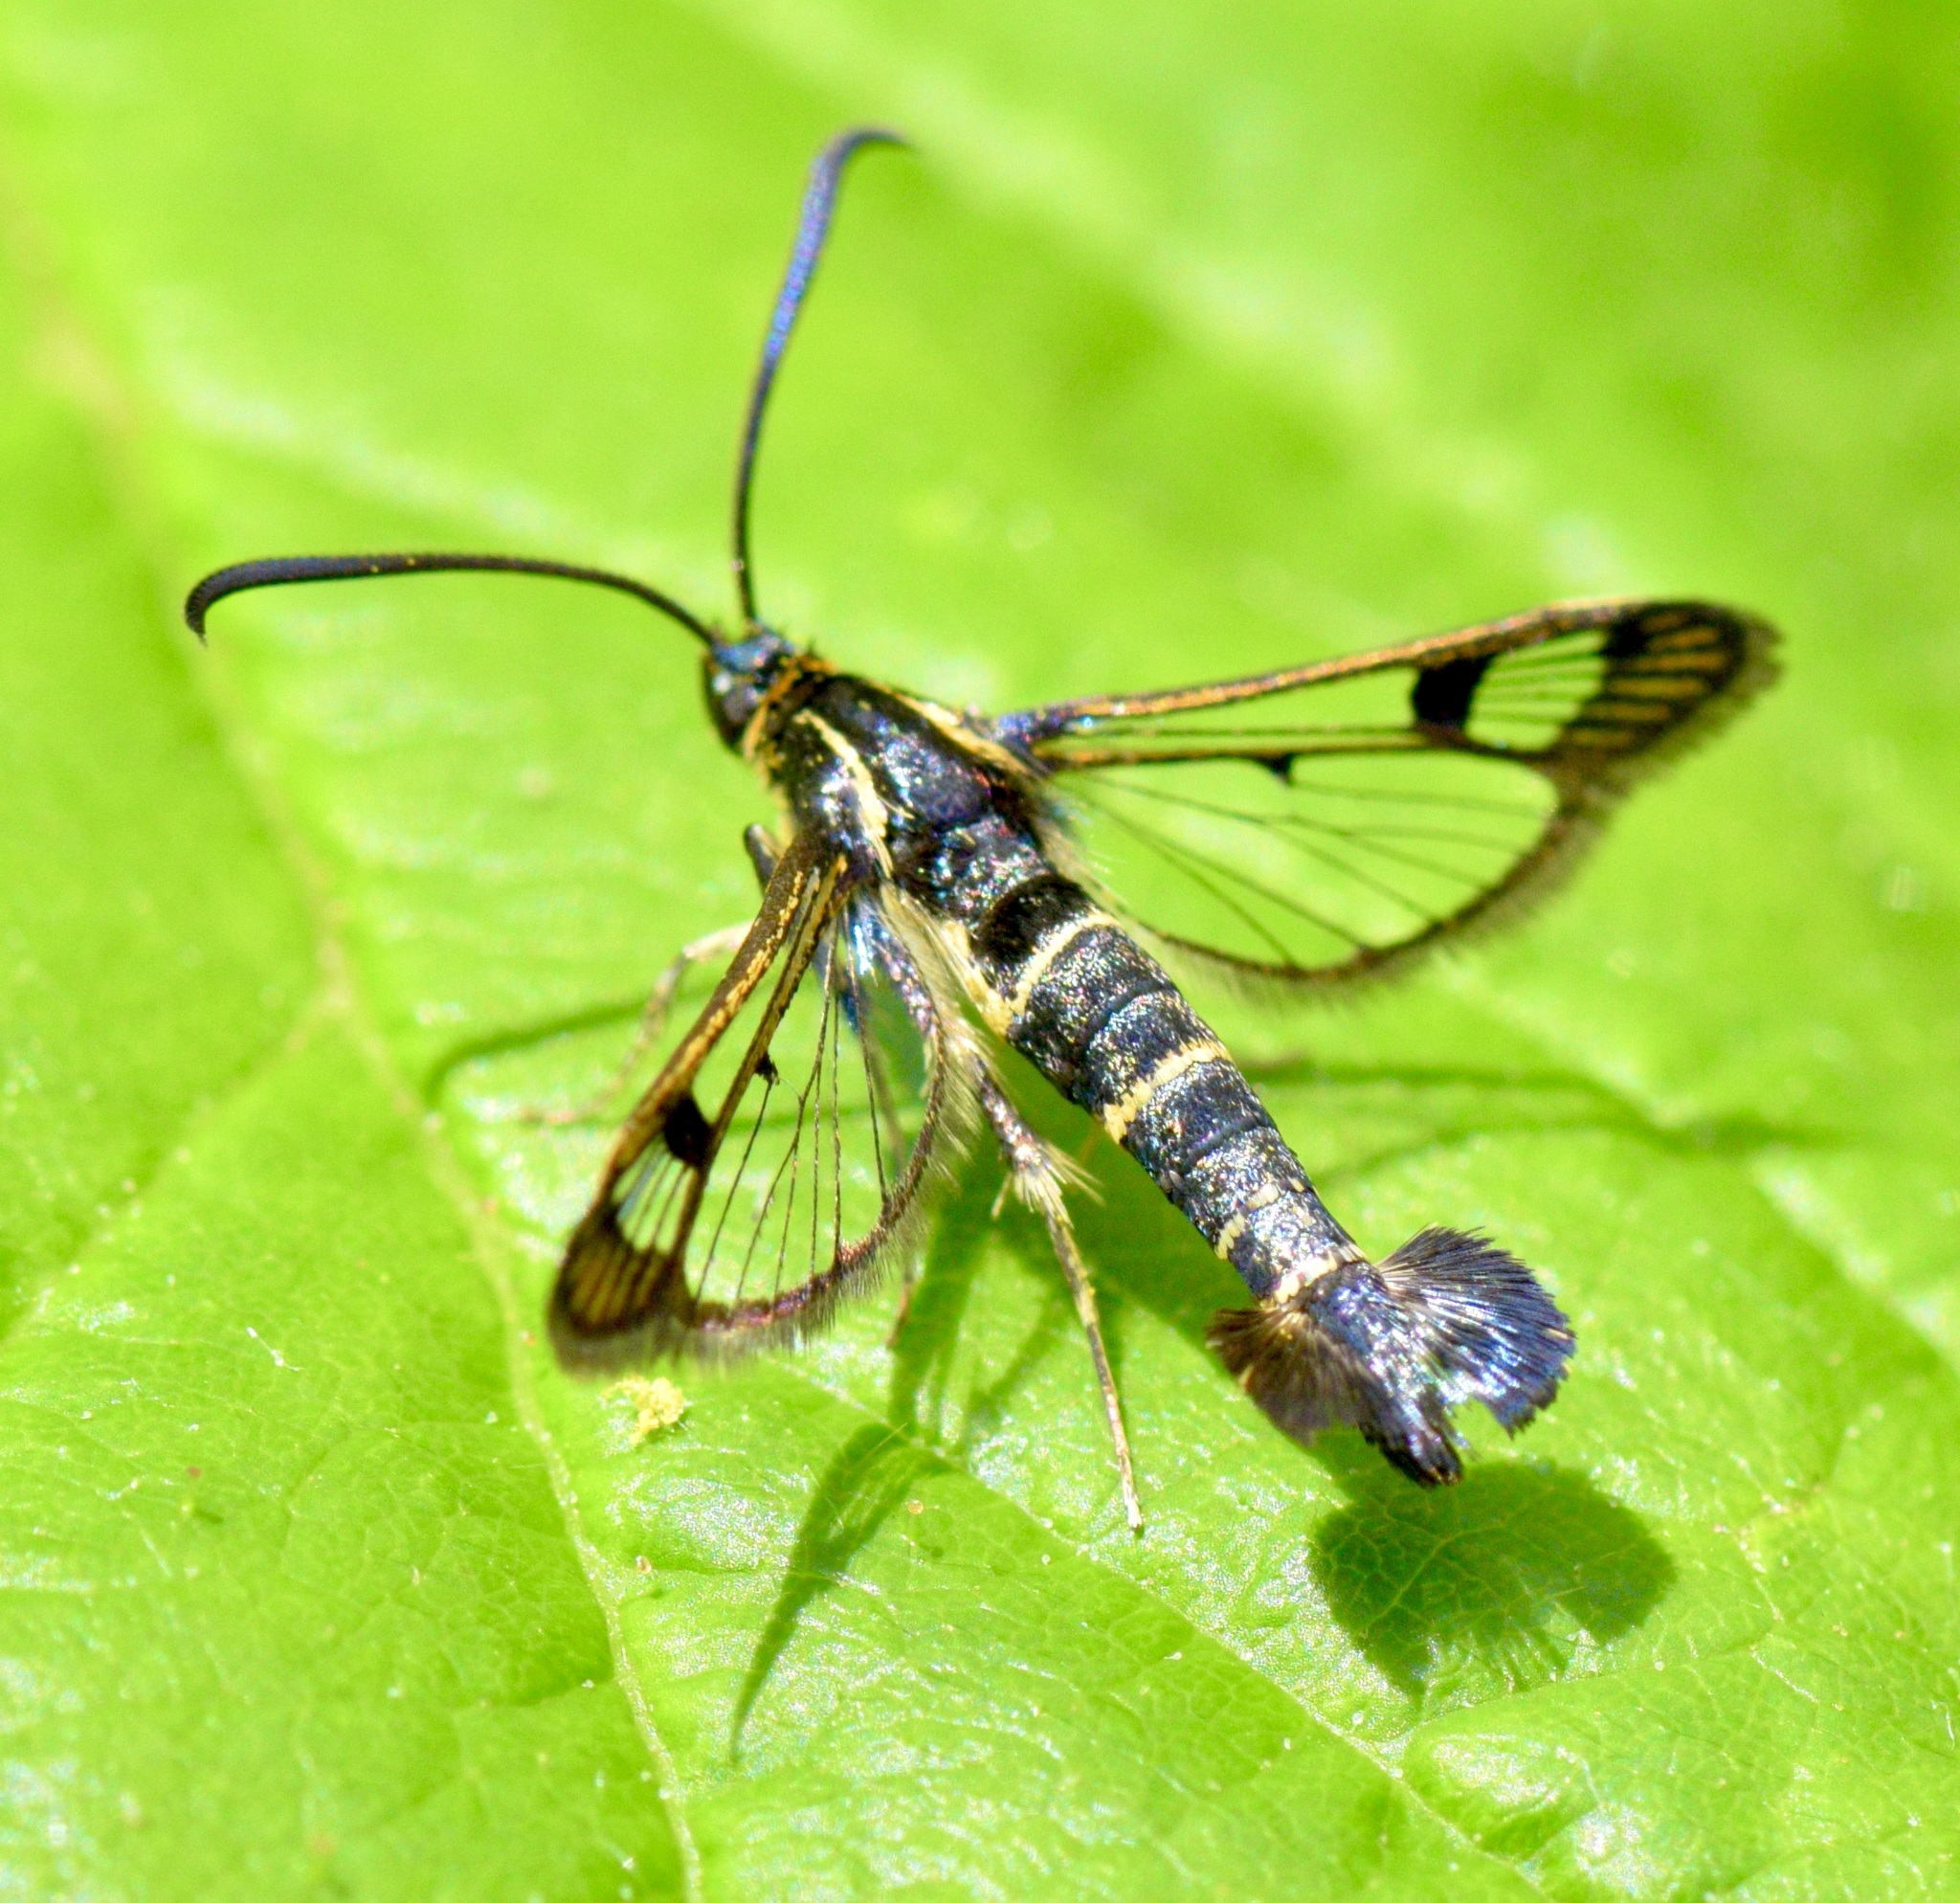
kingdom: Animalia
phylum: Arthropoda
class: Insecta
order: Lepidoptera
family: Sesiidae
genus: Synanthedon
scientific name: Synanthedon tipuliformis
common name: Currant clearwing
